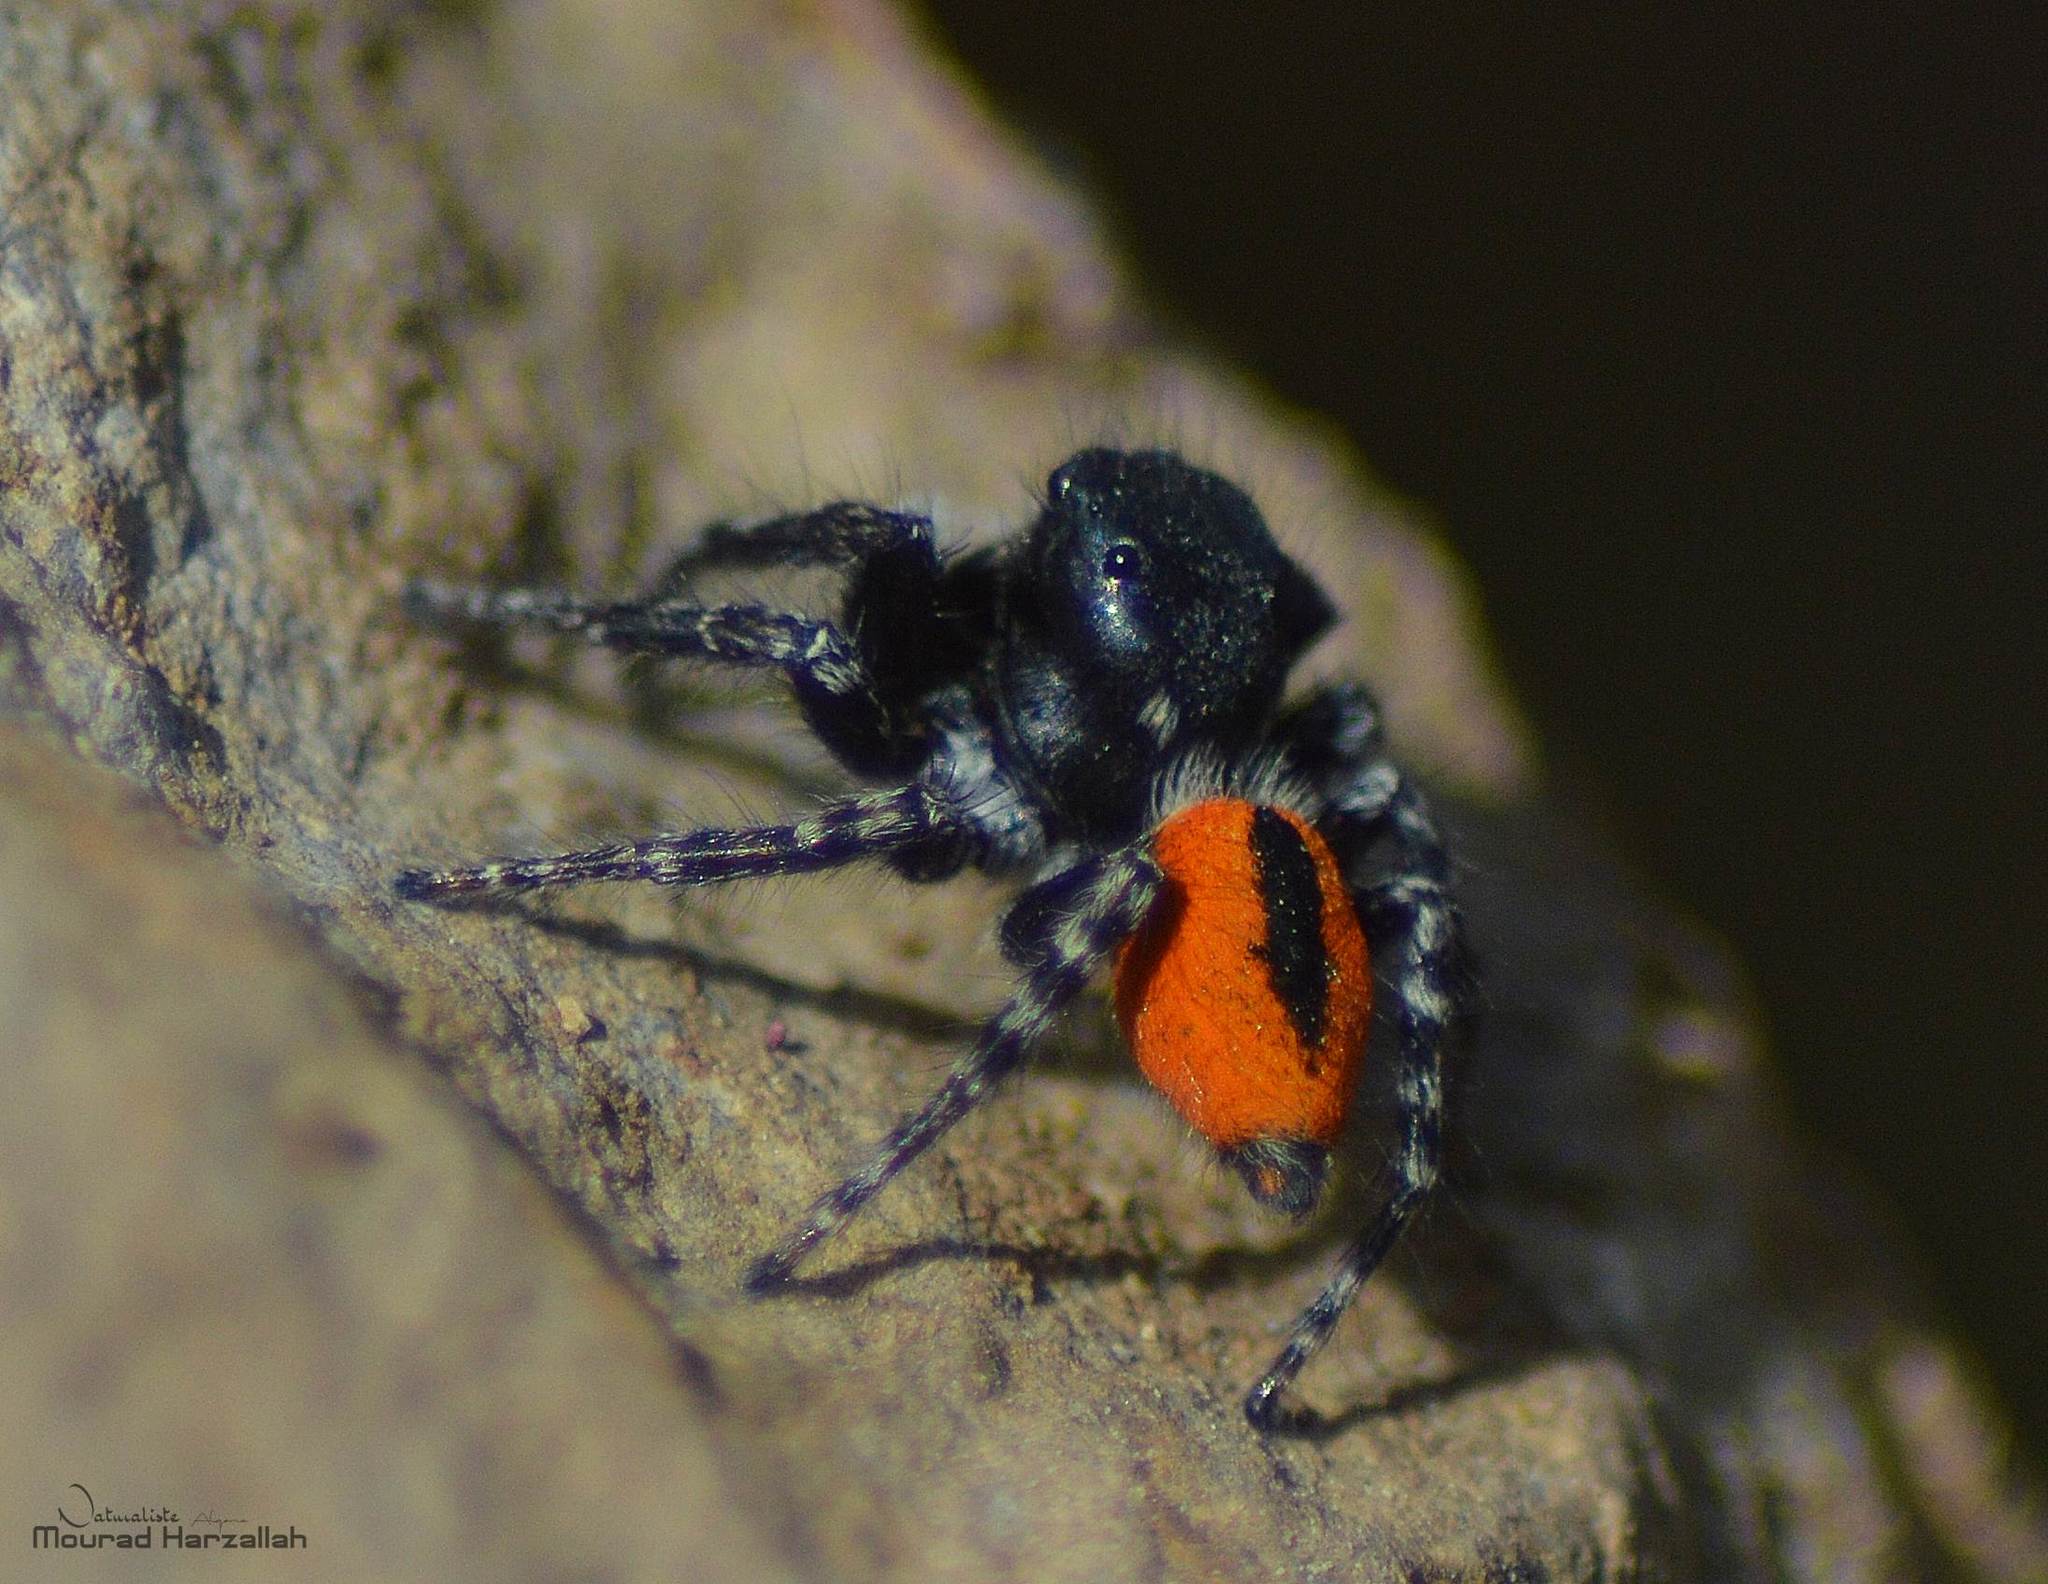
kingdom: Animalia
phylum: Arthropoda
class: Arachnida
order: Araneae
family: Salticidae
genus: Philaeus
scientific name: Philaeus chrysops
